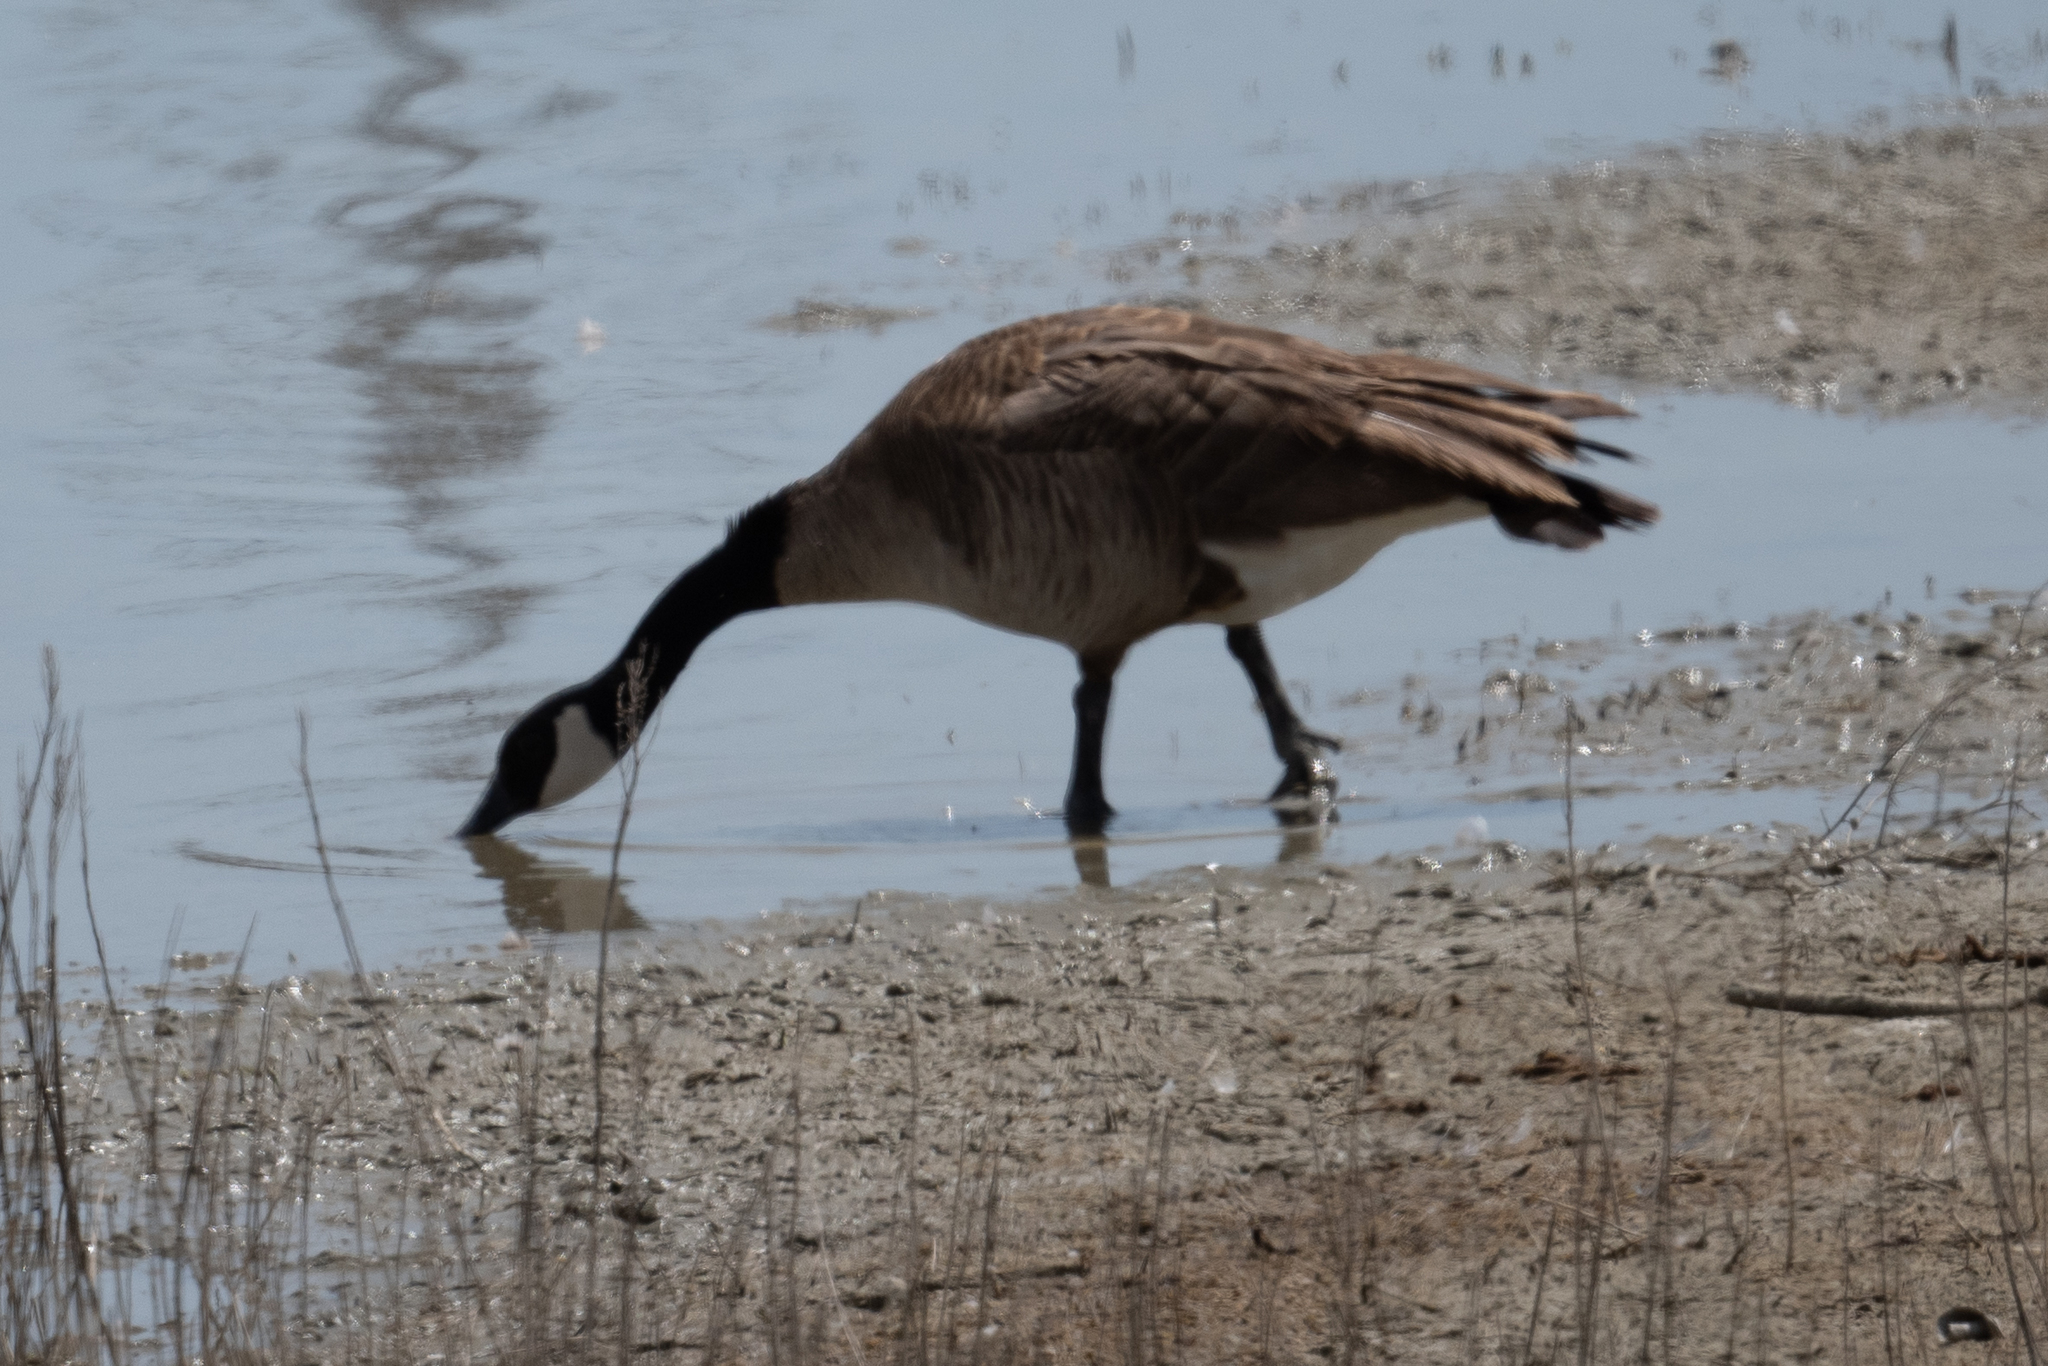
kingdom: Animalia
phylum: Chordata
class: Aves
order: Anseriformes
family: Anatidae
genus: Branta
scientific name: Branta canadensis
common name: Canada goose
